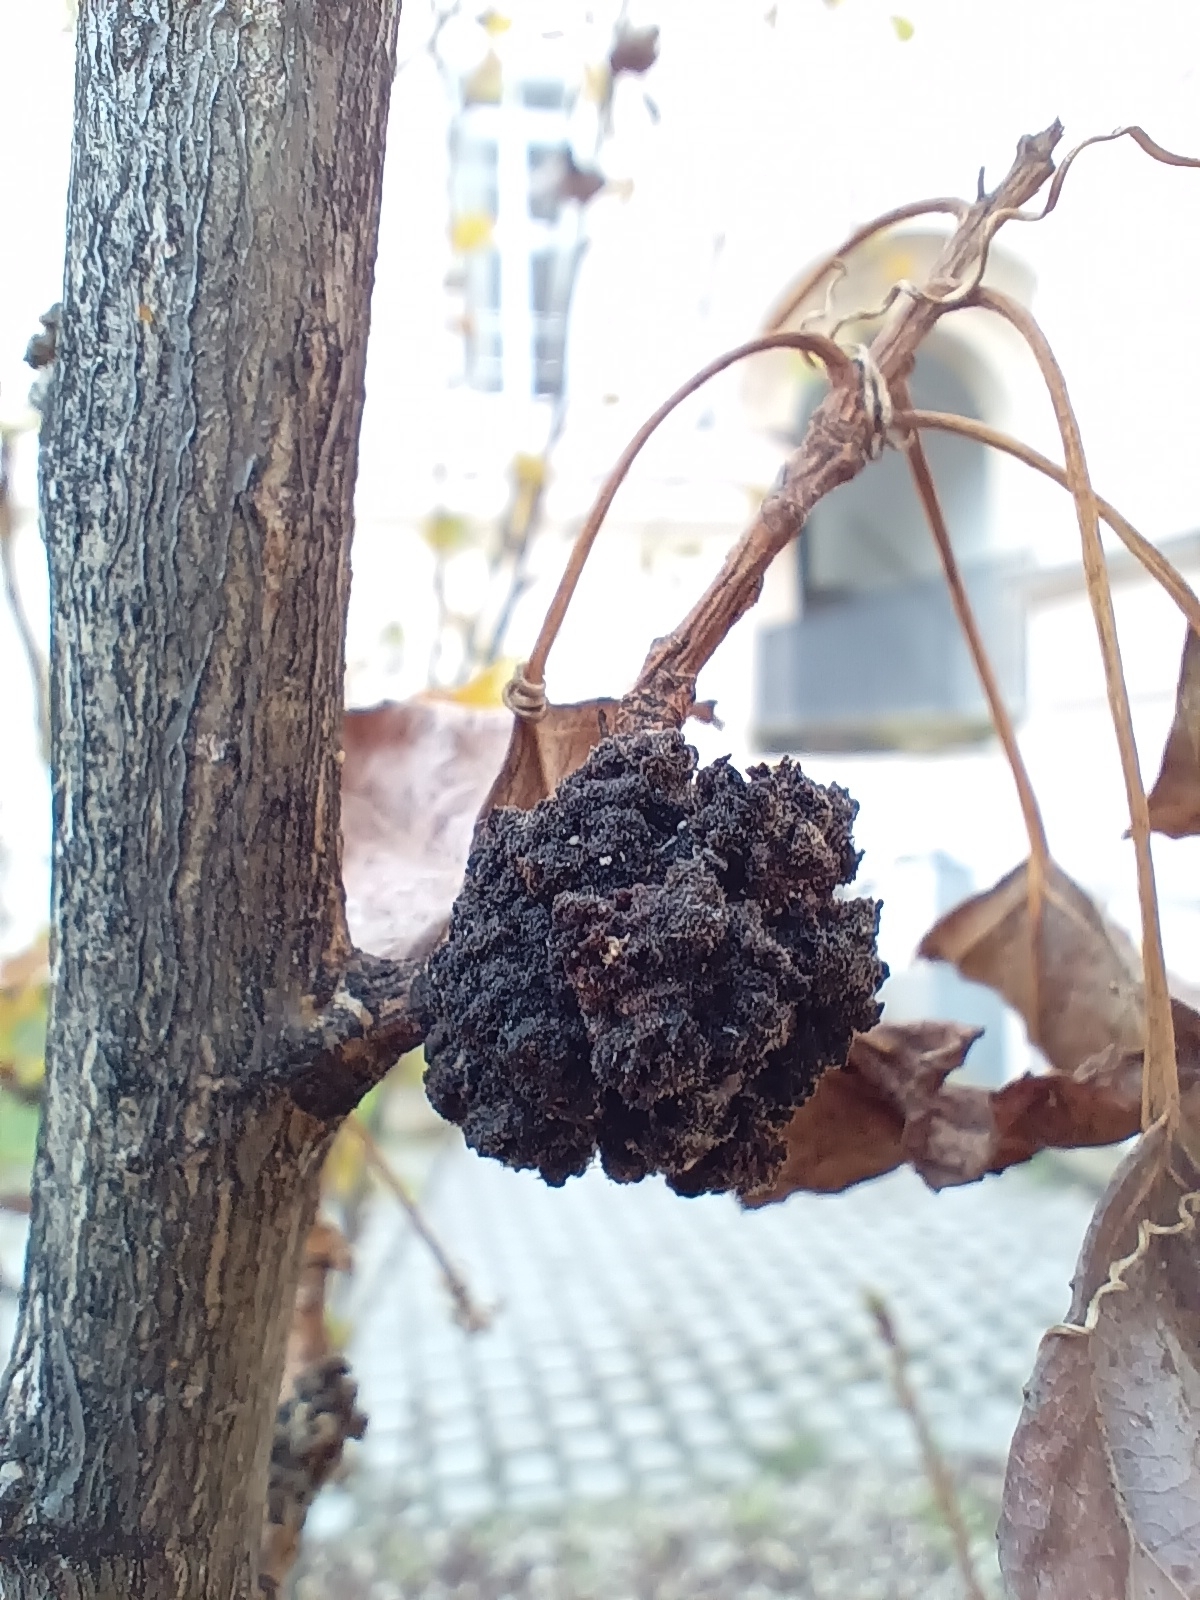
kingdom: Animalia
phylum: Arthropoda
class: Arachnida
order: Trombidiformes
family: Eriophyidae
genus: Aceria
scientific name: Aceria populi
